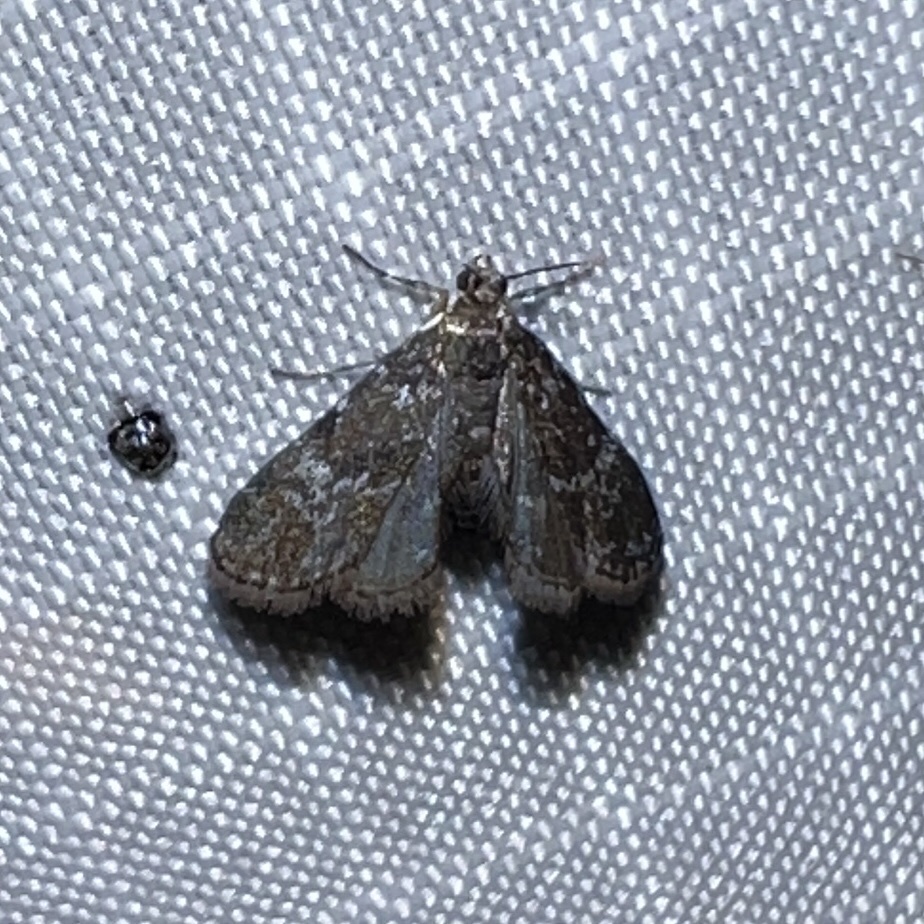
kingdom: Animalia
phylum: Arthropoda
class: Insecta
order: Lepidoptera
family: Crambidae
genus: Elophila
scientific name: Elophila tinealis
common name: Black duckweed moth
